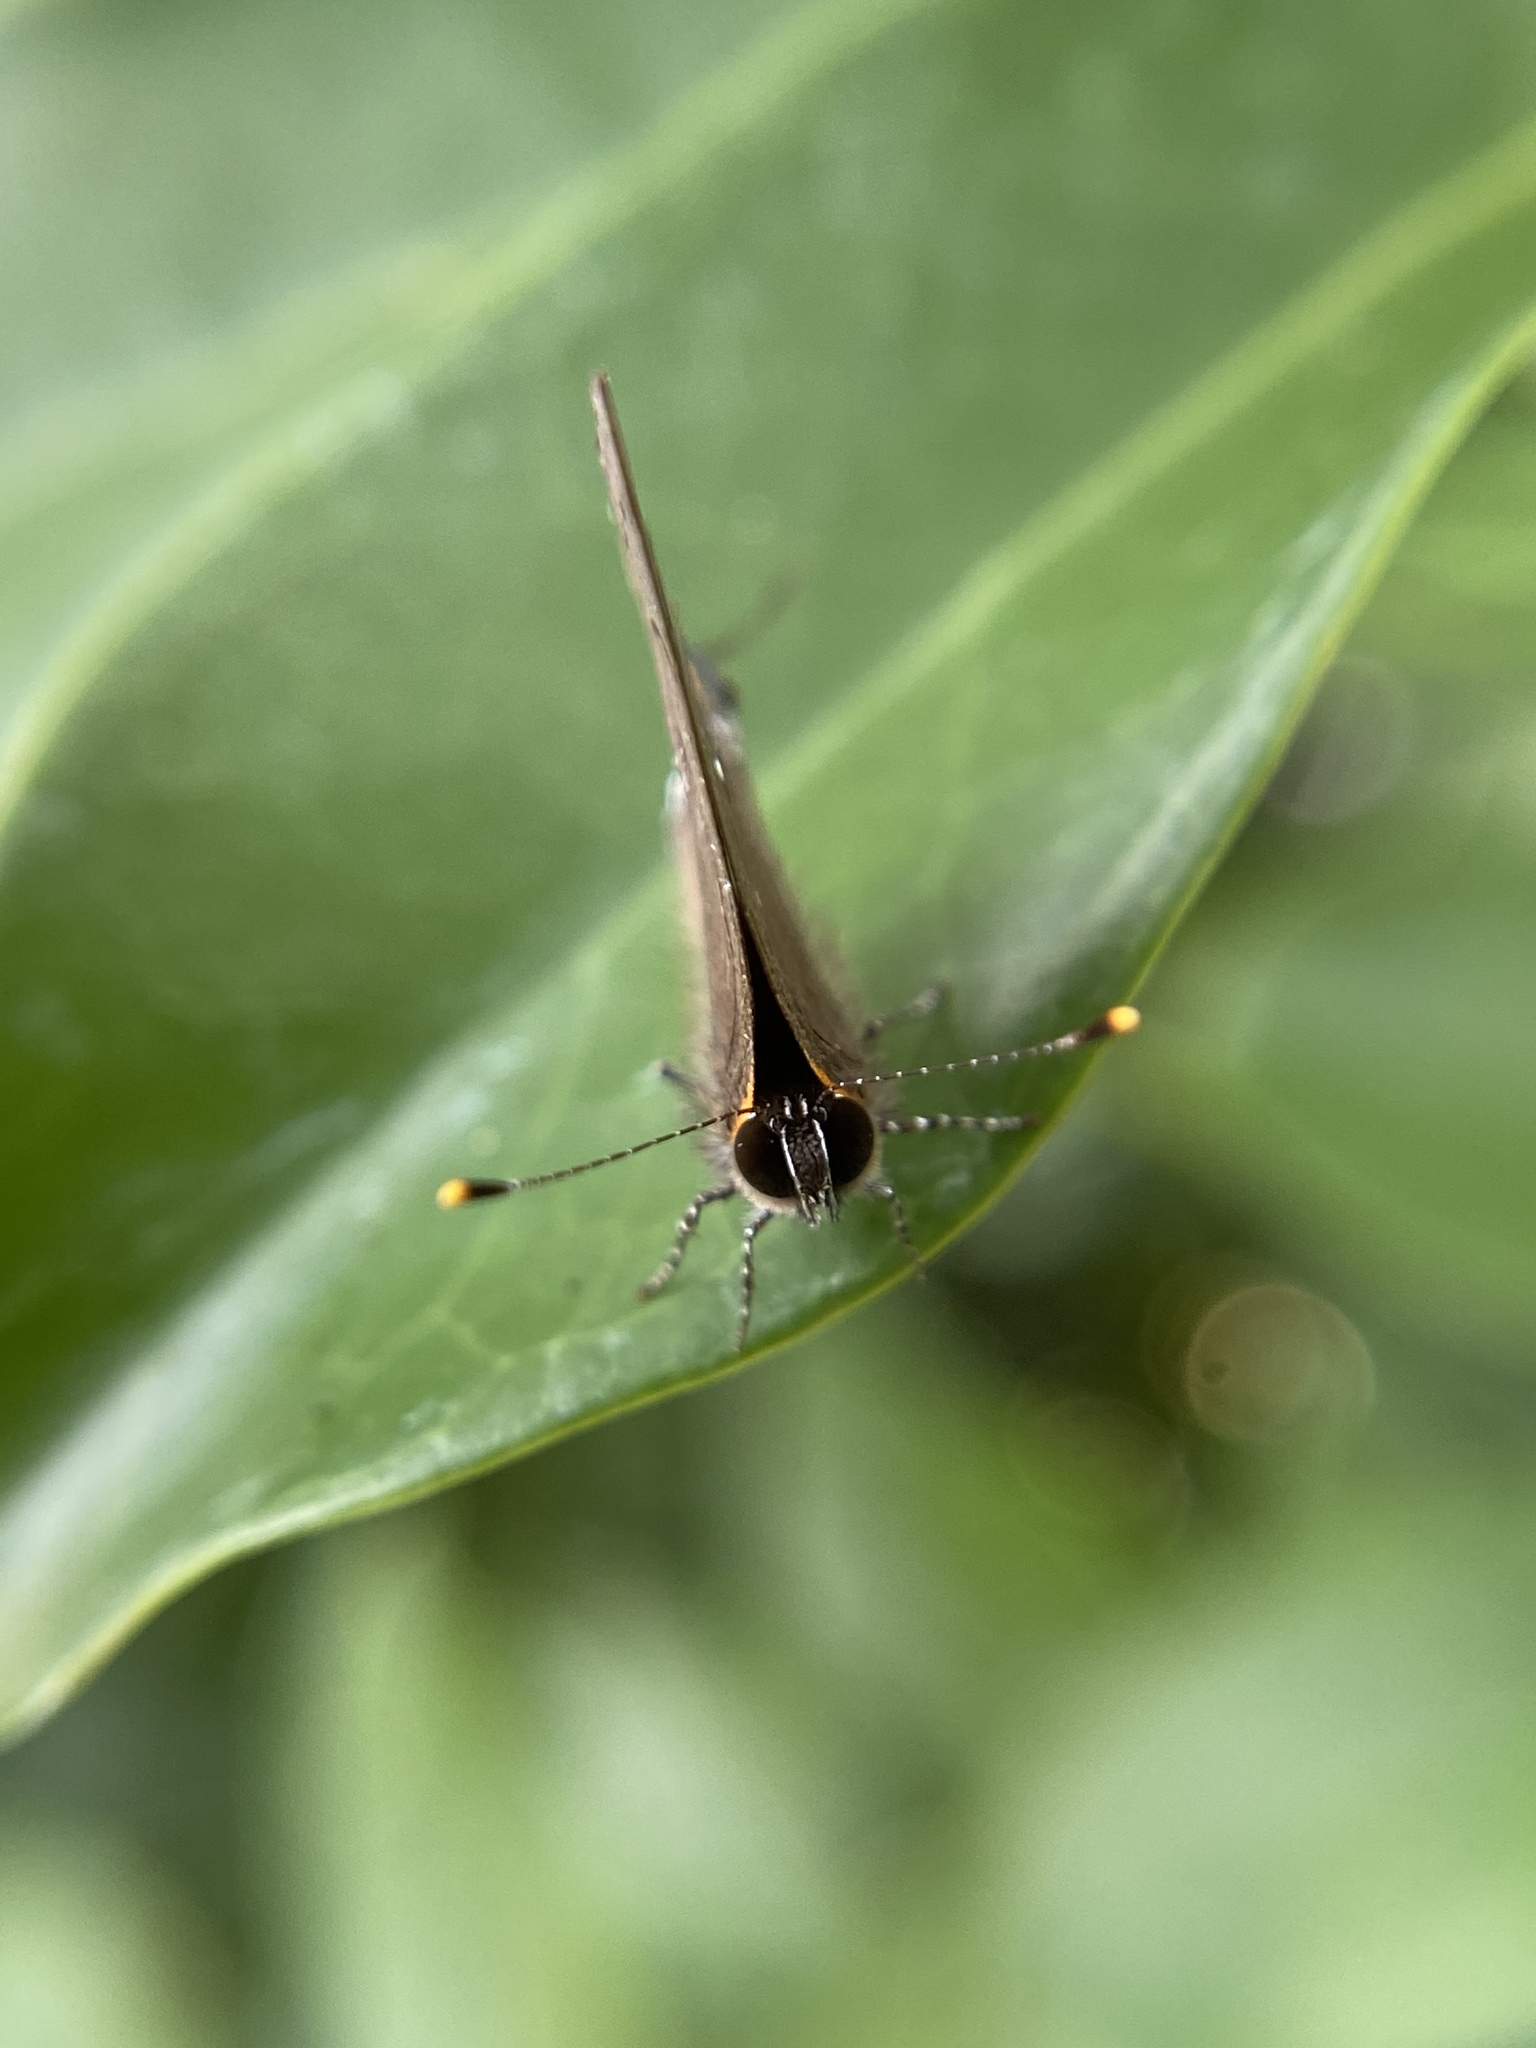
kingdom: Animalia
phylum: Arthropoda
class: Insecta
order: Lepidoptera
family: Lycaenidae
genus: Thecla
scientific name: Thecla angelia
